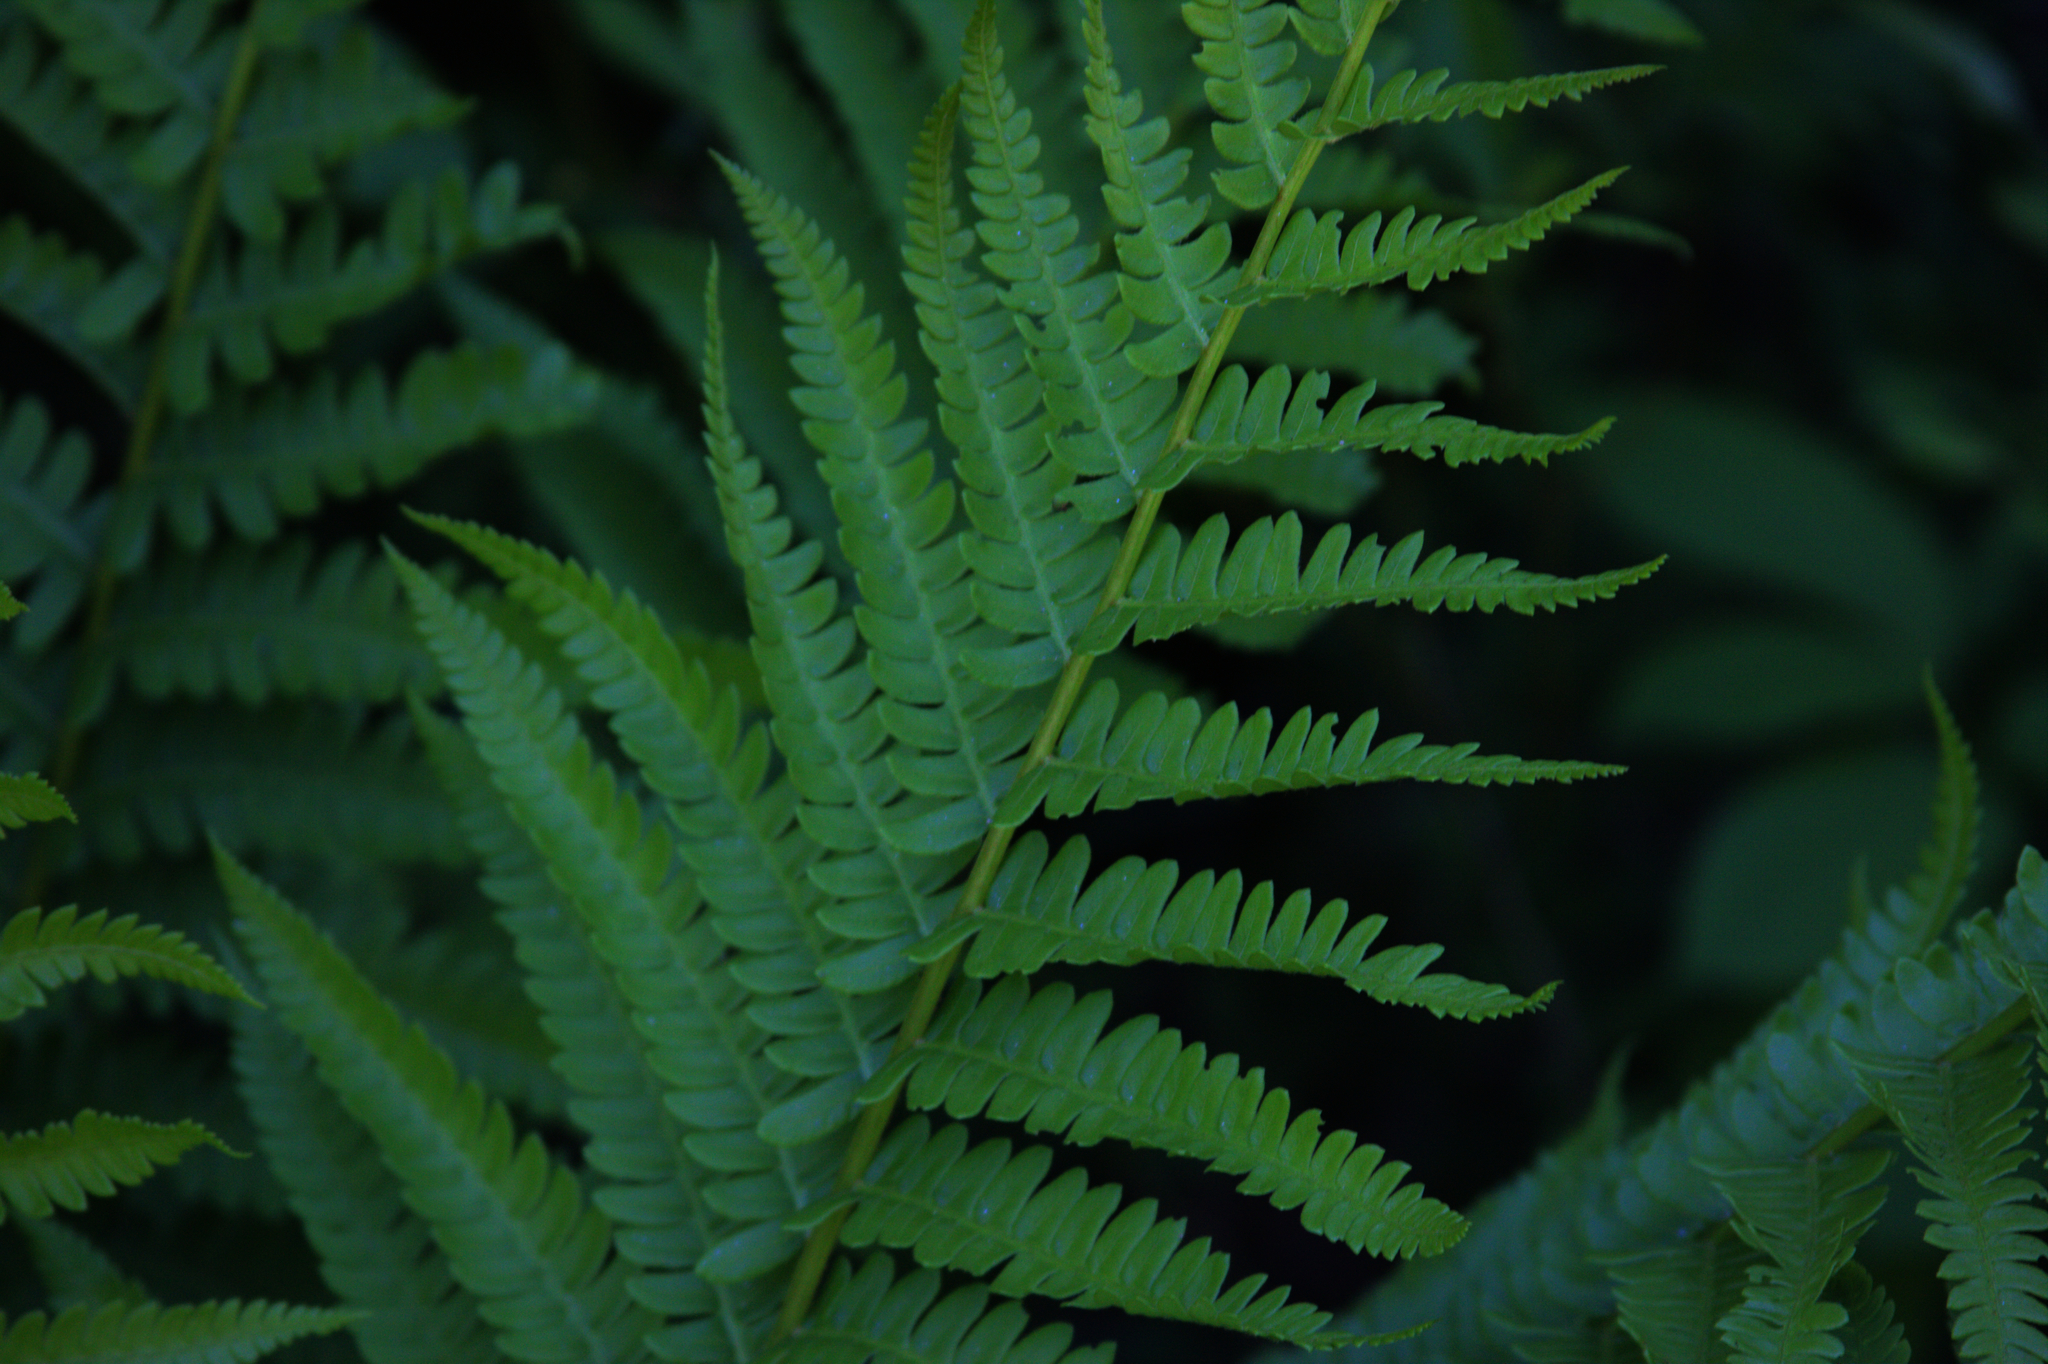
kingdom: Plantae
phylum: Tracheophyta
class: Polypodiopsida
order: Osmundales
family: Osmundaceae
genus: Osmundastrum
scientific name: Osmundastrum cinnamomeum
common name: Cinnamon fern
